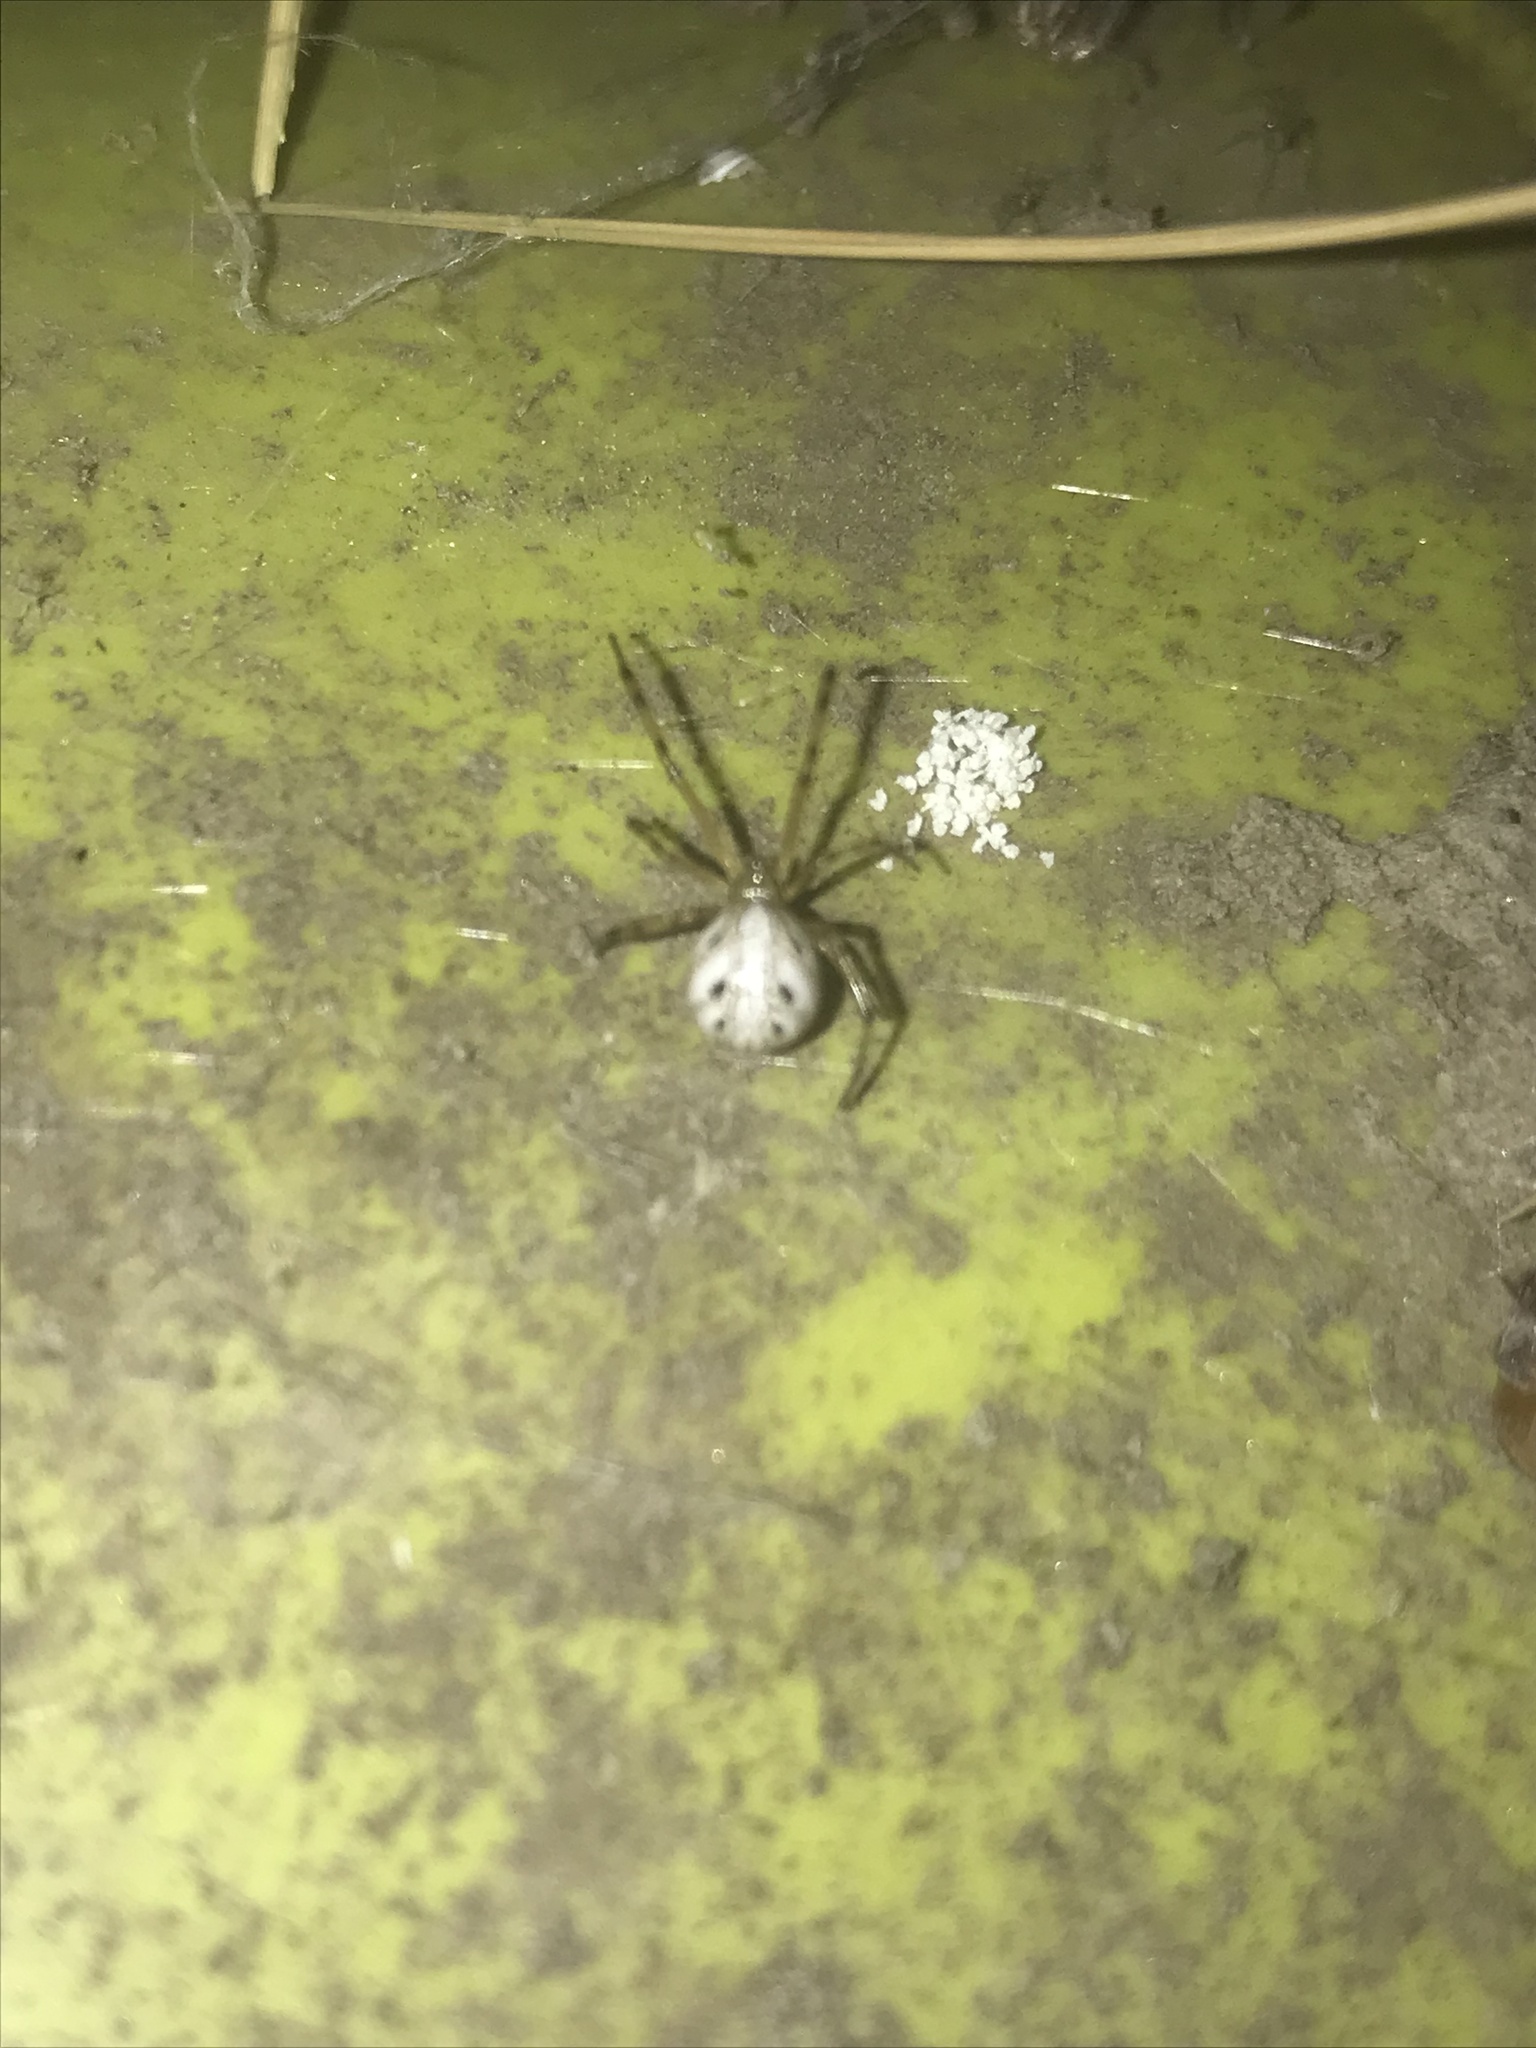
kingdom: Animalia
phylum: Arthropoda
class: Arachnida
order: Araneae
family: Theridiidae
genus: Latrodectus
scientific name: Latrodectus hesperus
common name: Western black widow
